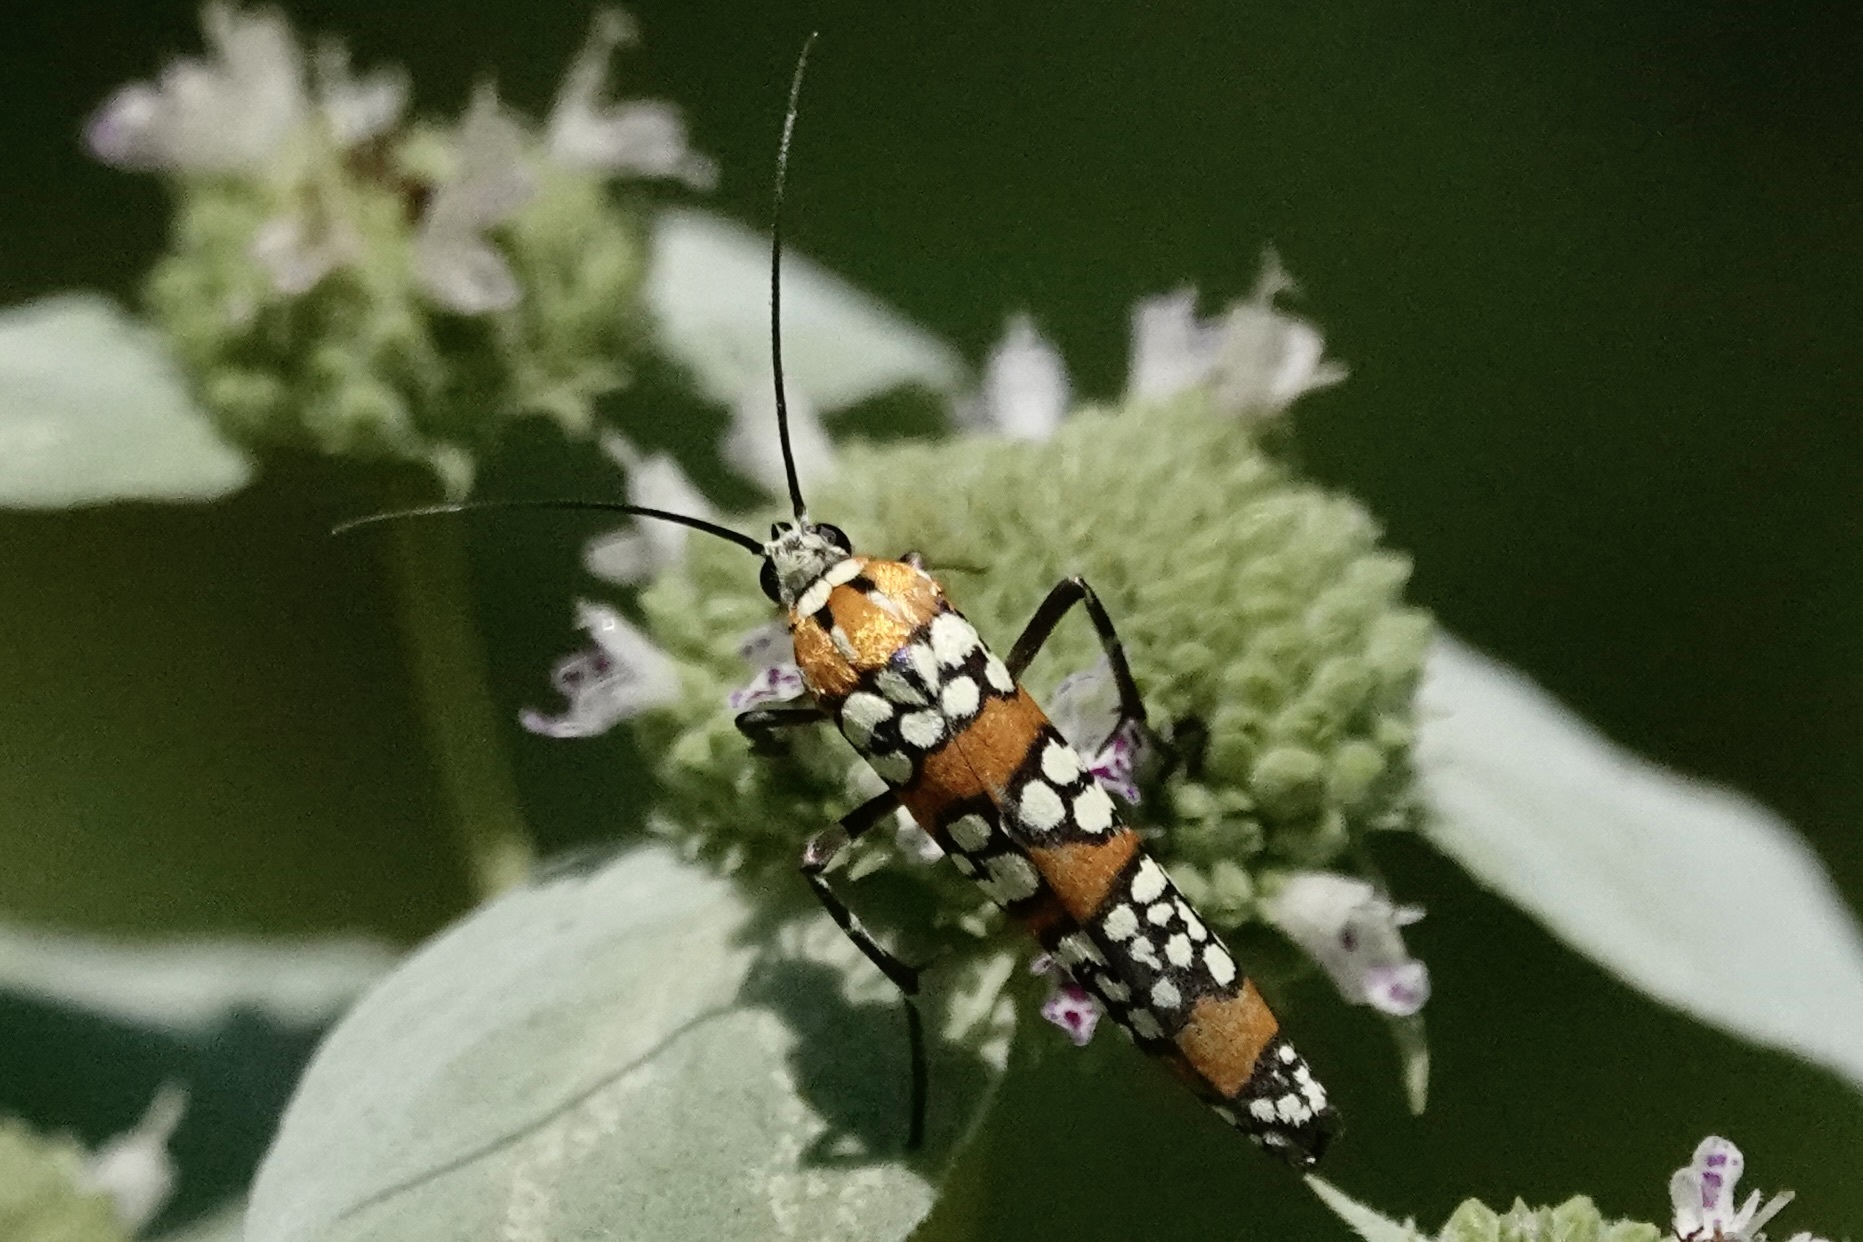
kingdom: Animalia
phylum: Arthropoda
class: Insecta
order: Lepidoptera
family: Attevidae
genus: Atteva
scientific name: Atteva punctella
